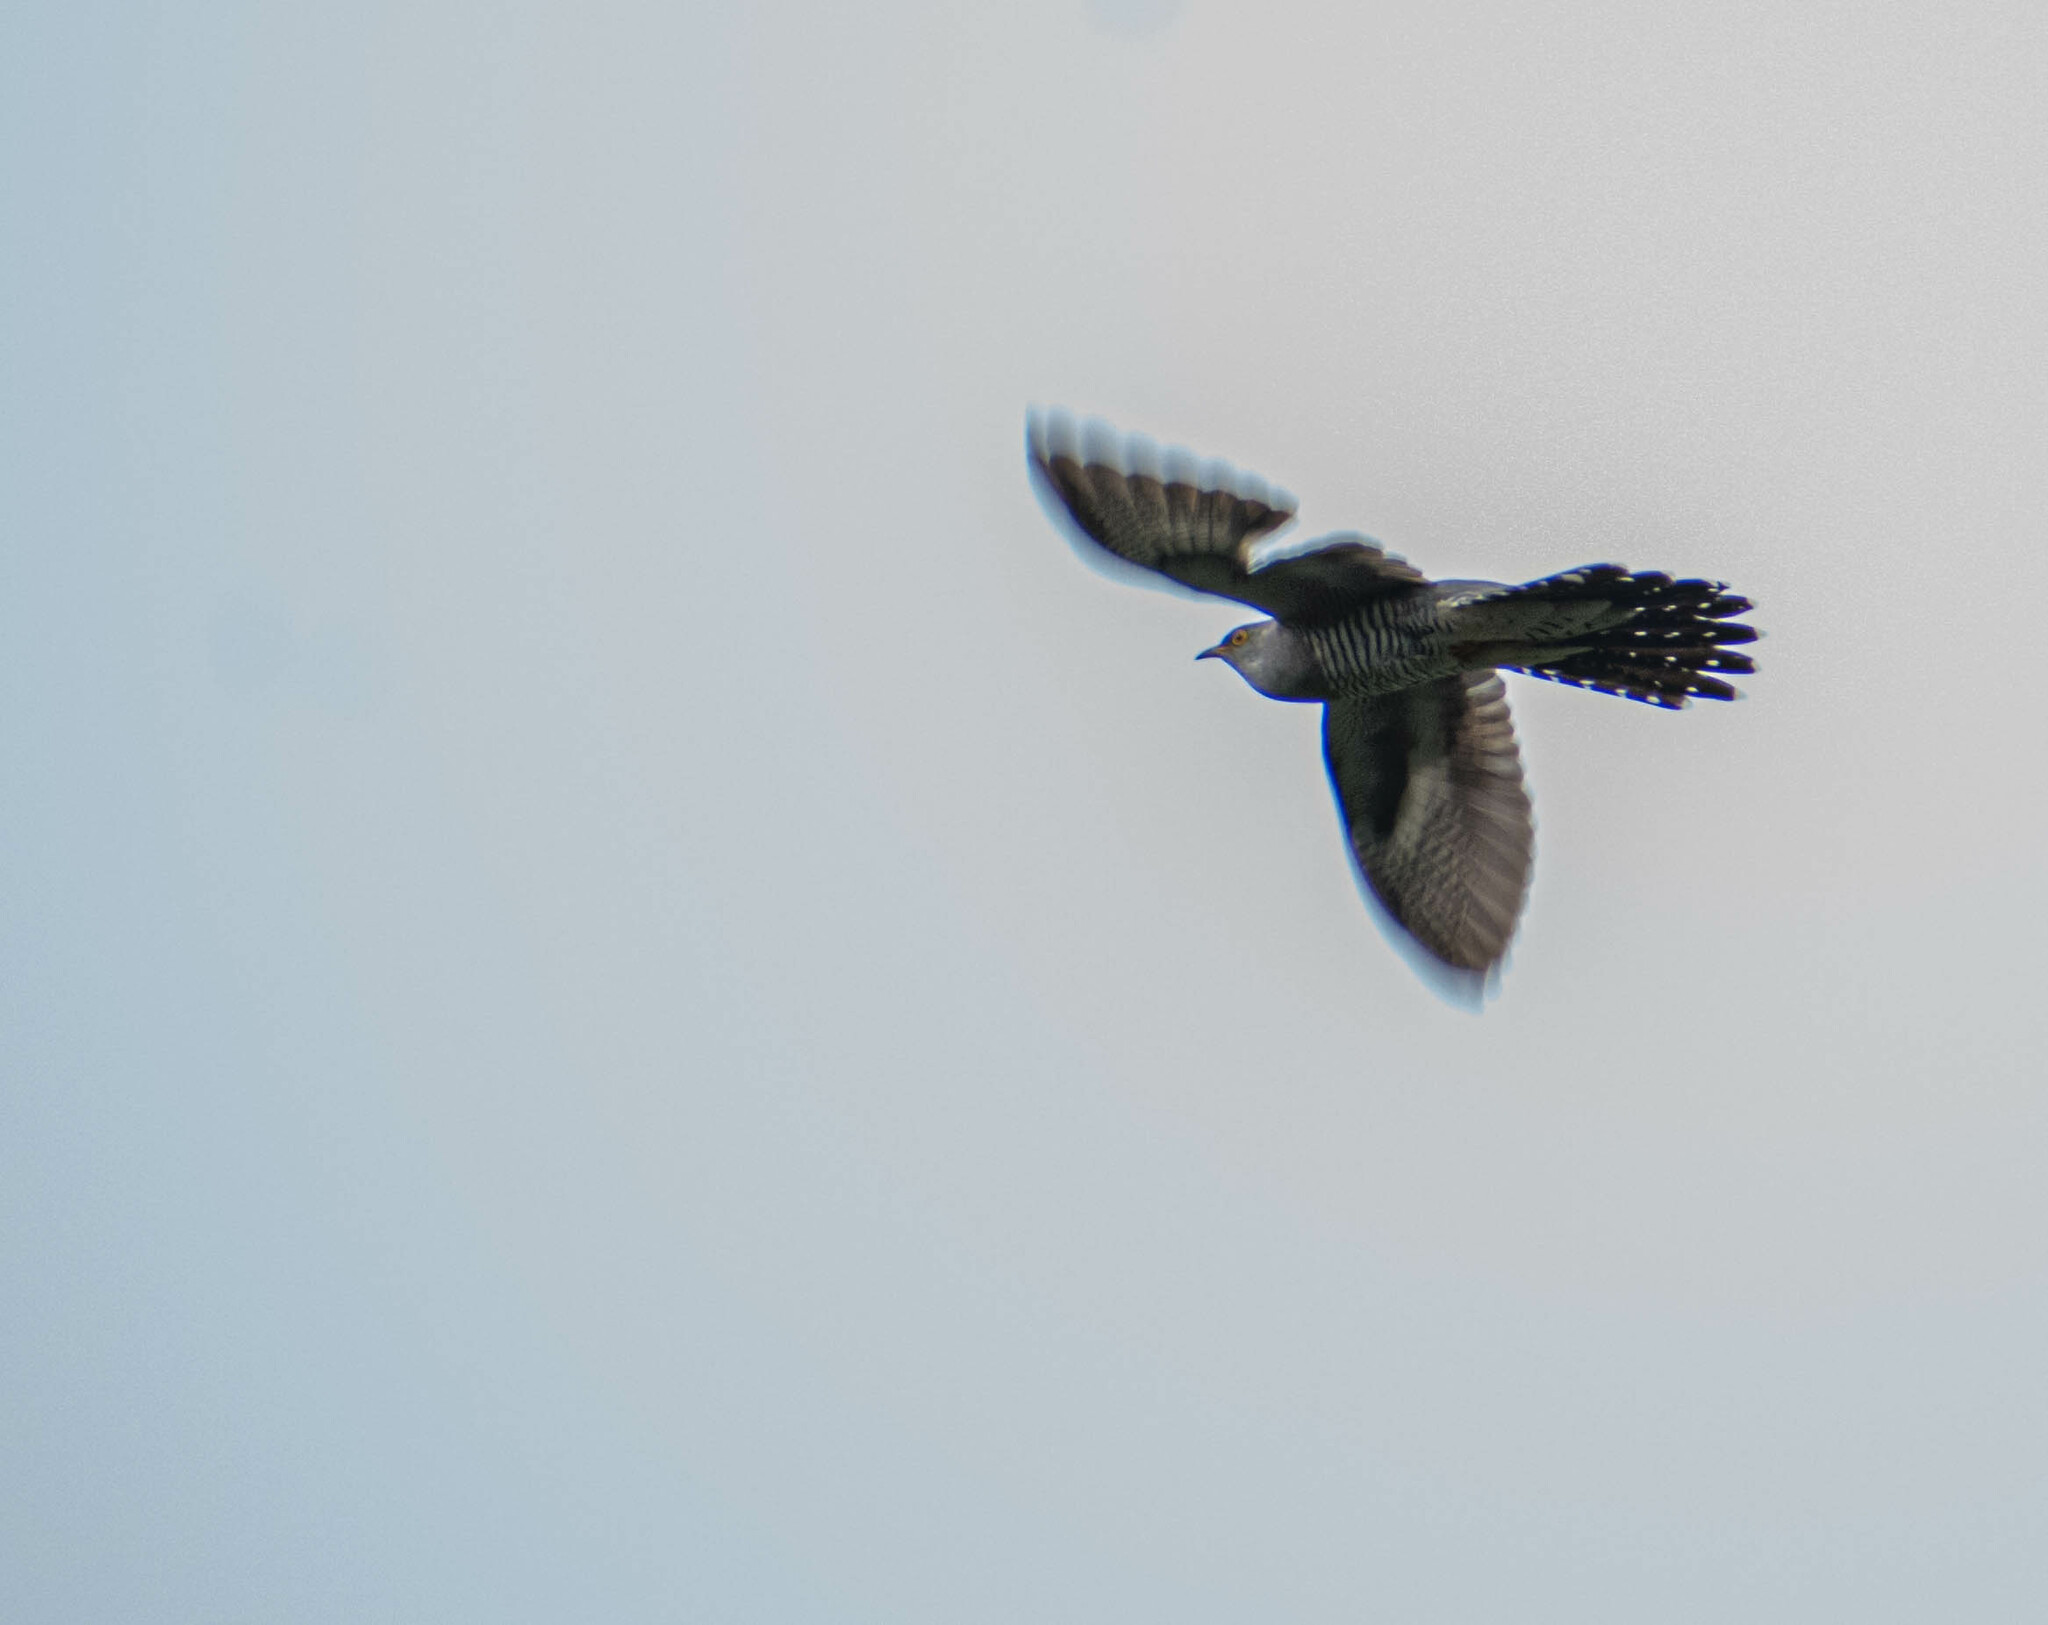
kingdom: Animalia
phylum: Chordata
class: Aves
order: Cuculiformes
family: Cuculidae
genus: Cuculus
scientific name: Cuculus canorus
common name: Common cuckoo
